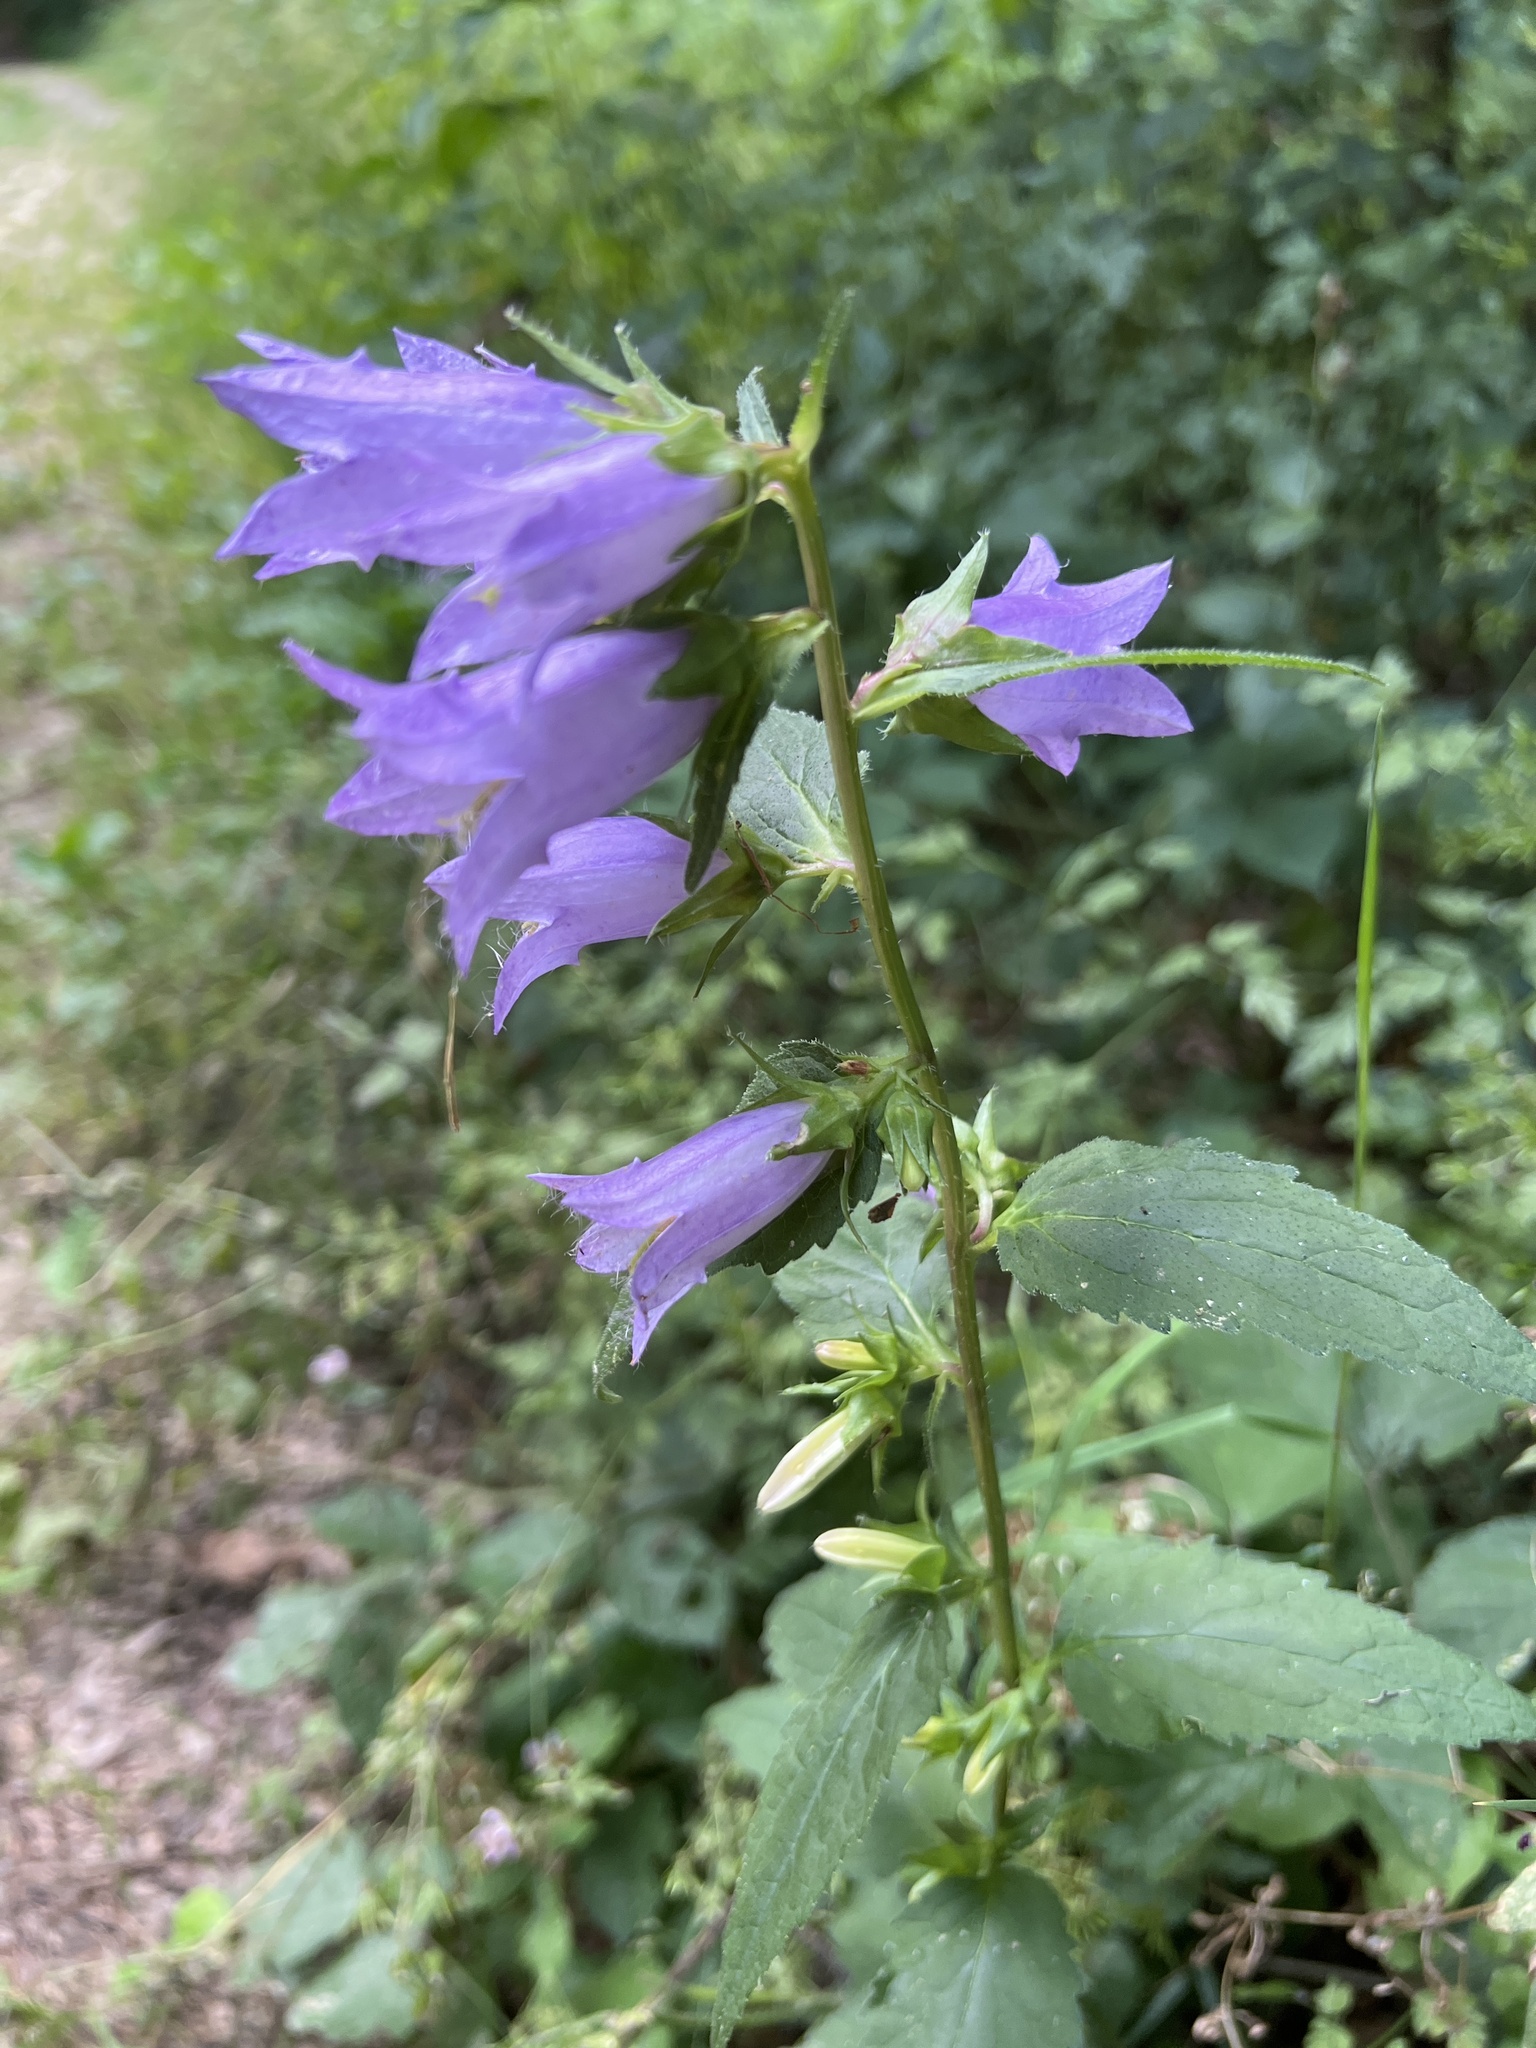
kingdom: Plantae
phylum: Tracheophyta
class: Magnoliopsida
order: Asterales
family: Campanulaceae
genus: Campanula
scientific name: Campanula trachelium
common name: Nettle-leaved bellflower
